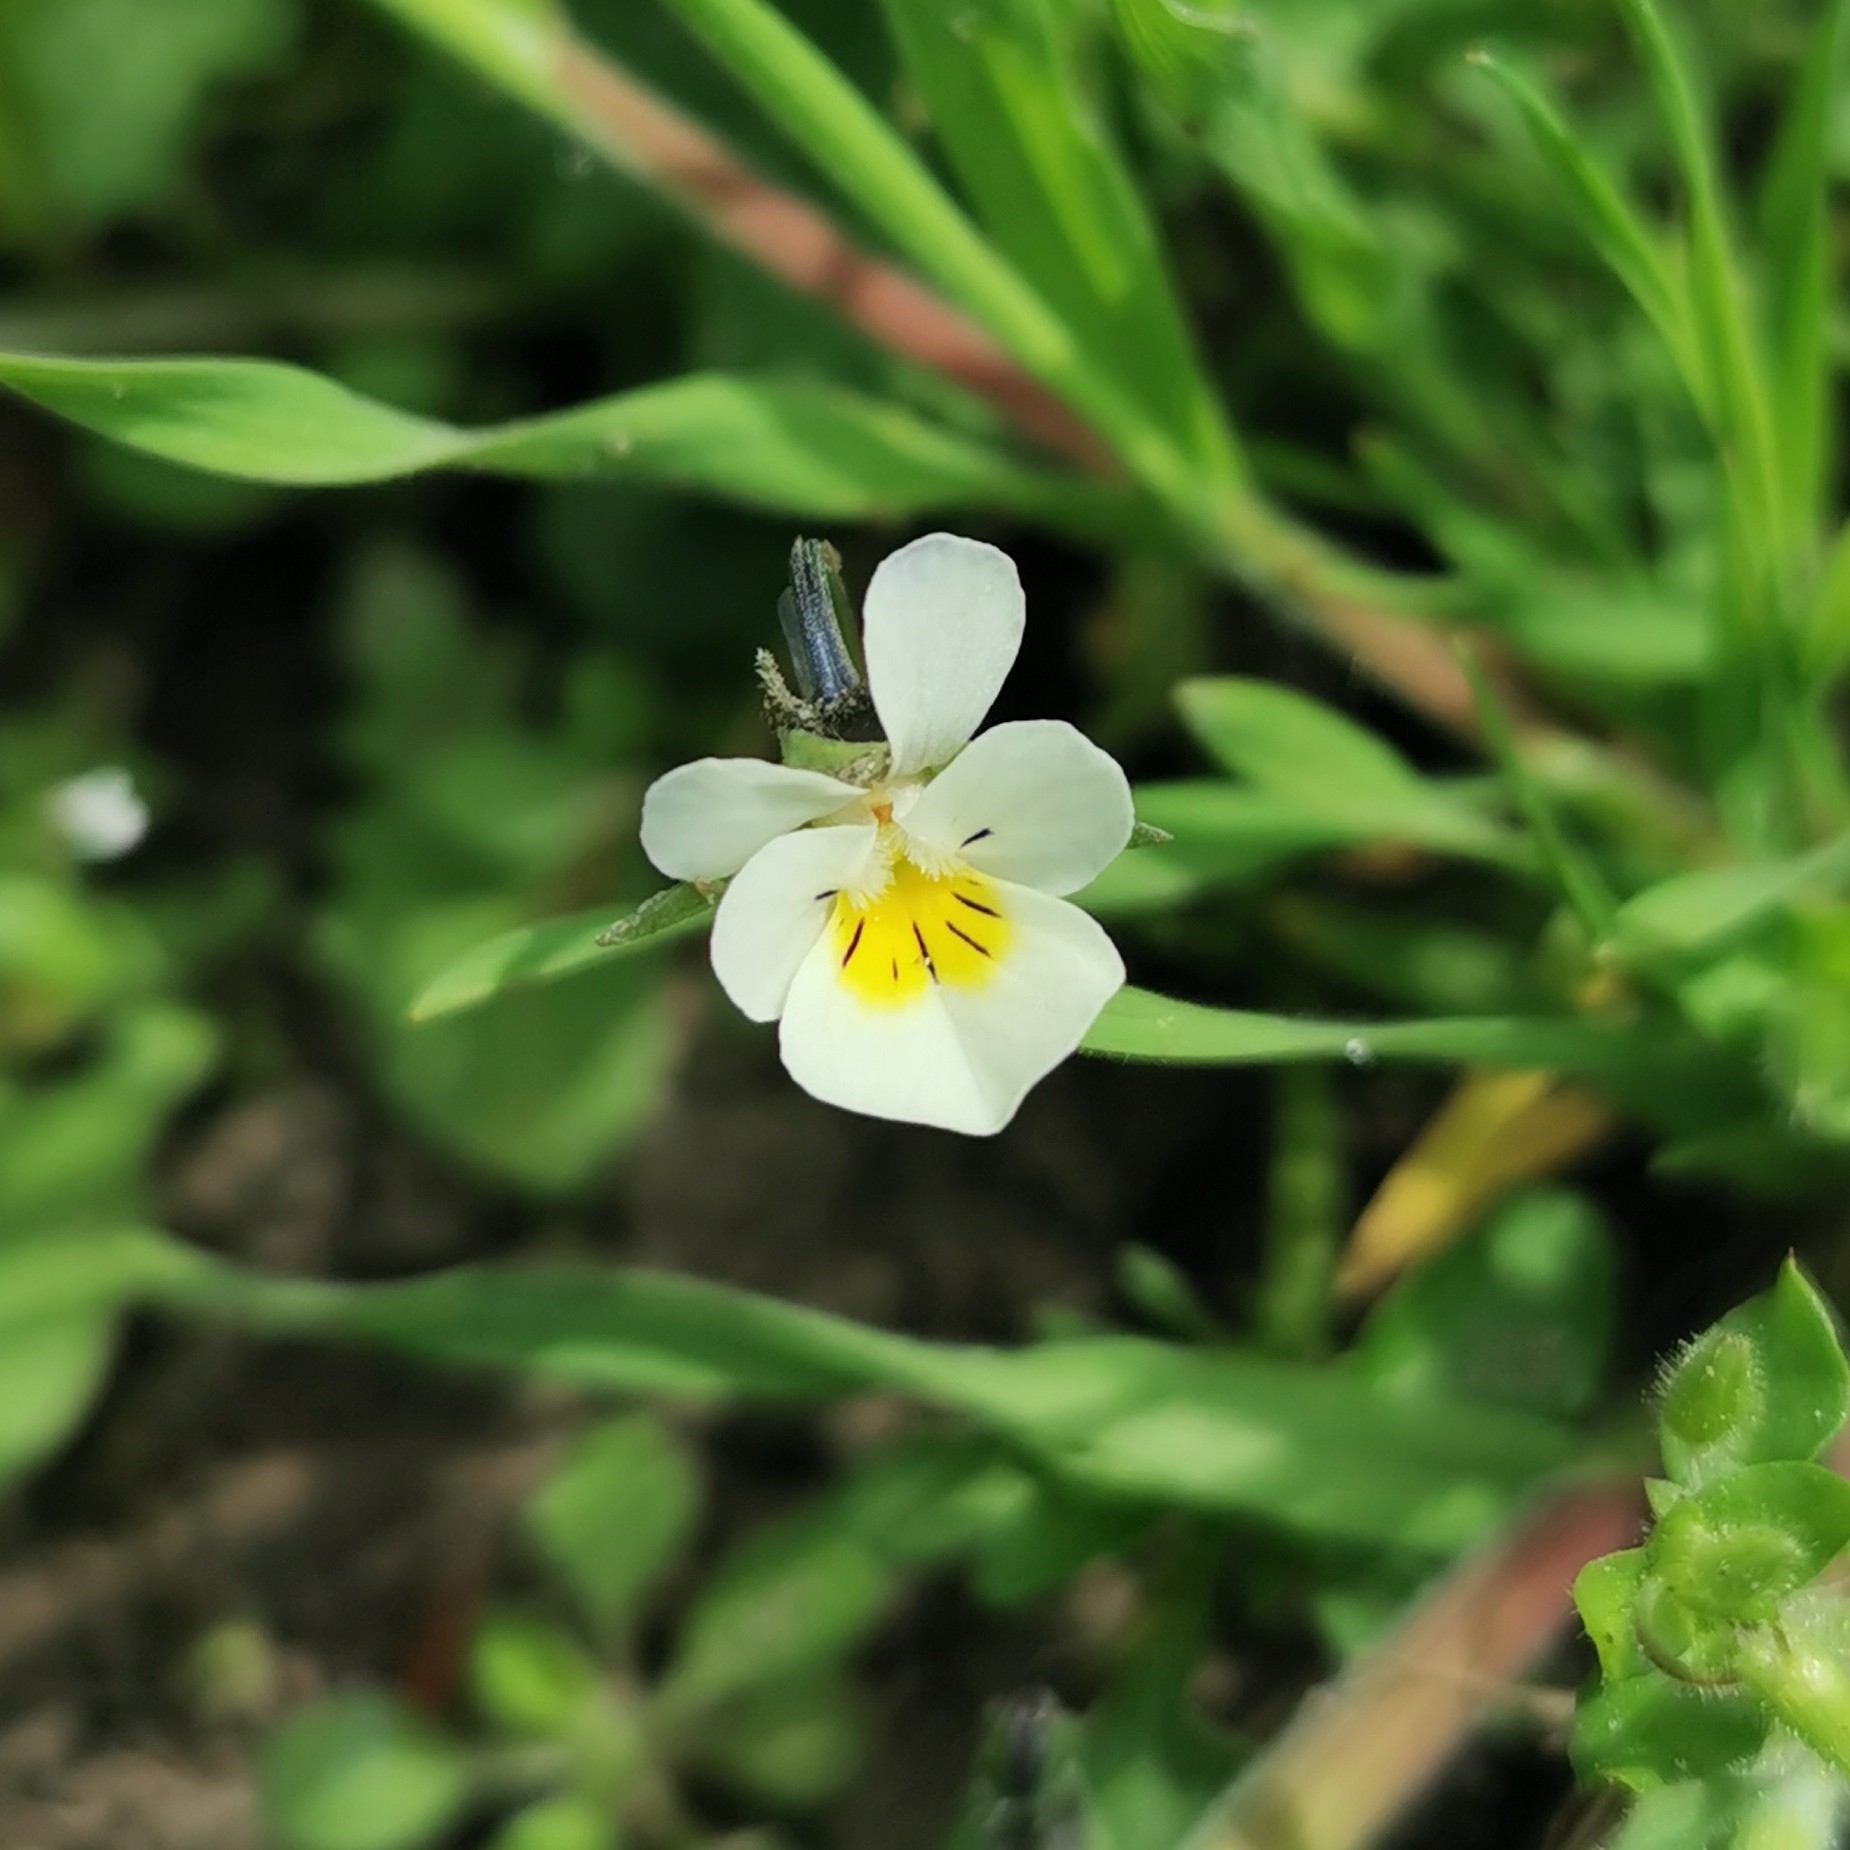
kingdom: Plantae
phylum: Tracheophyta
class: Magnoliopsida
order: Malpighiales
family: Violaceae
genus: Viola
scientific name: Viola arvensis
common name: Field pansy
